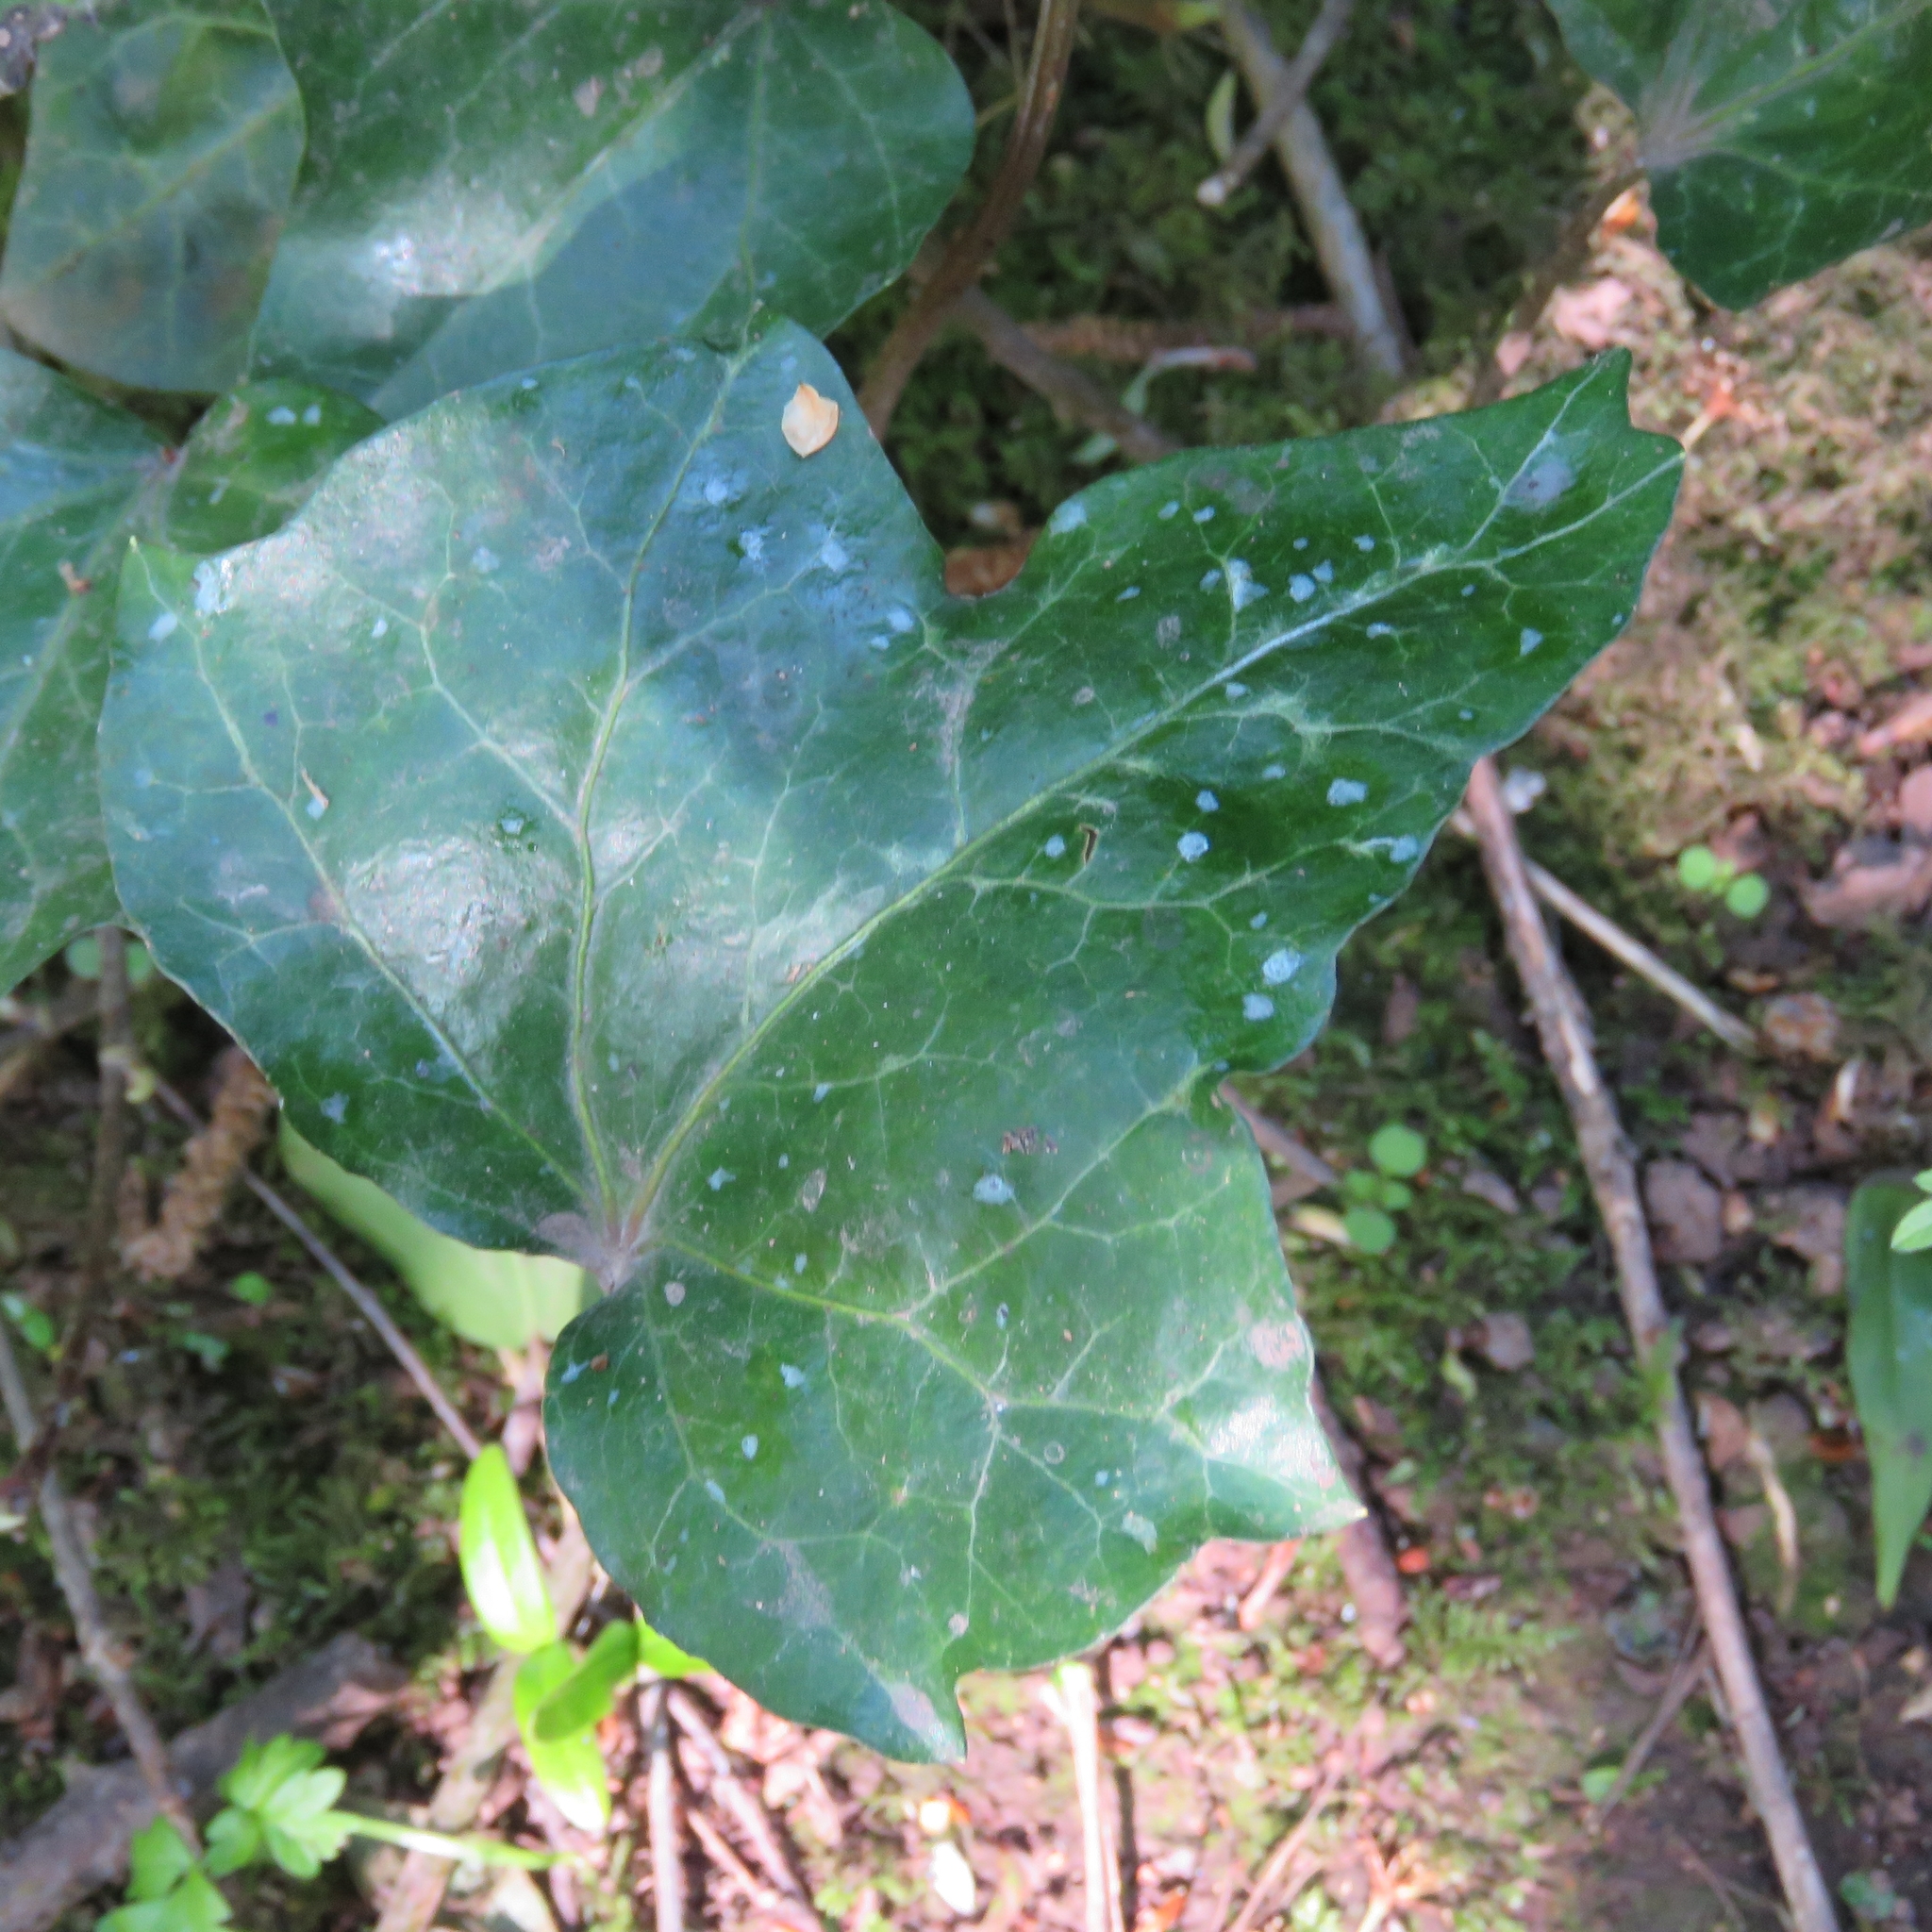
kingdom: Plantae
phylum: Tracheophyta
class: Magnoliopsida
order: Apiales
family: Araliaceae
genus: Hedera
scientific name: Hedera helix
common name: Ivy
